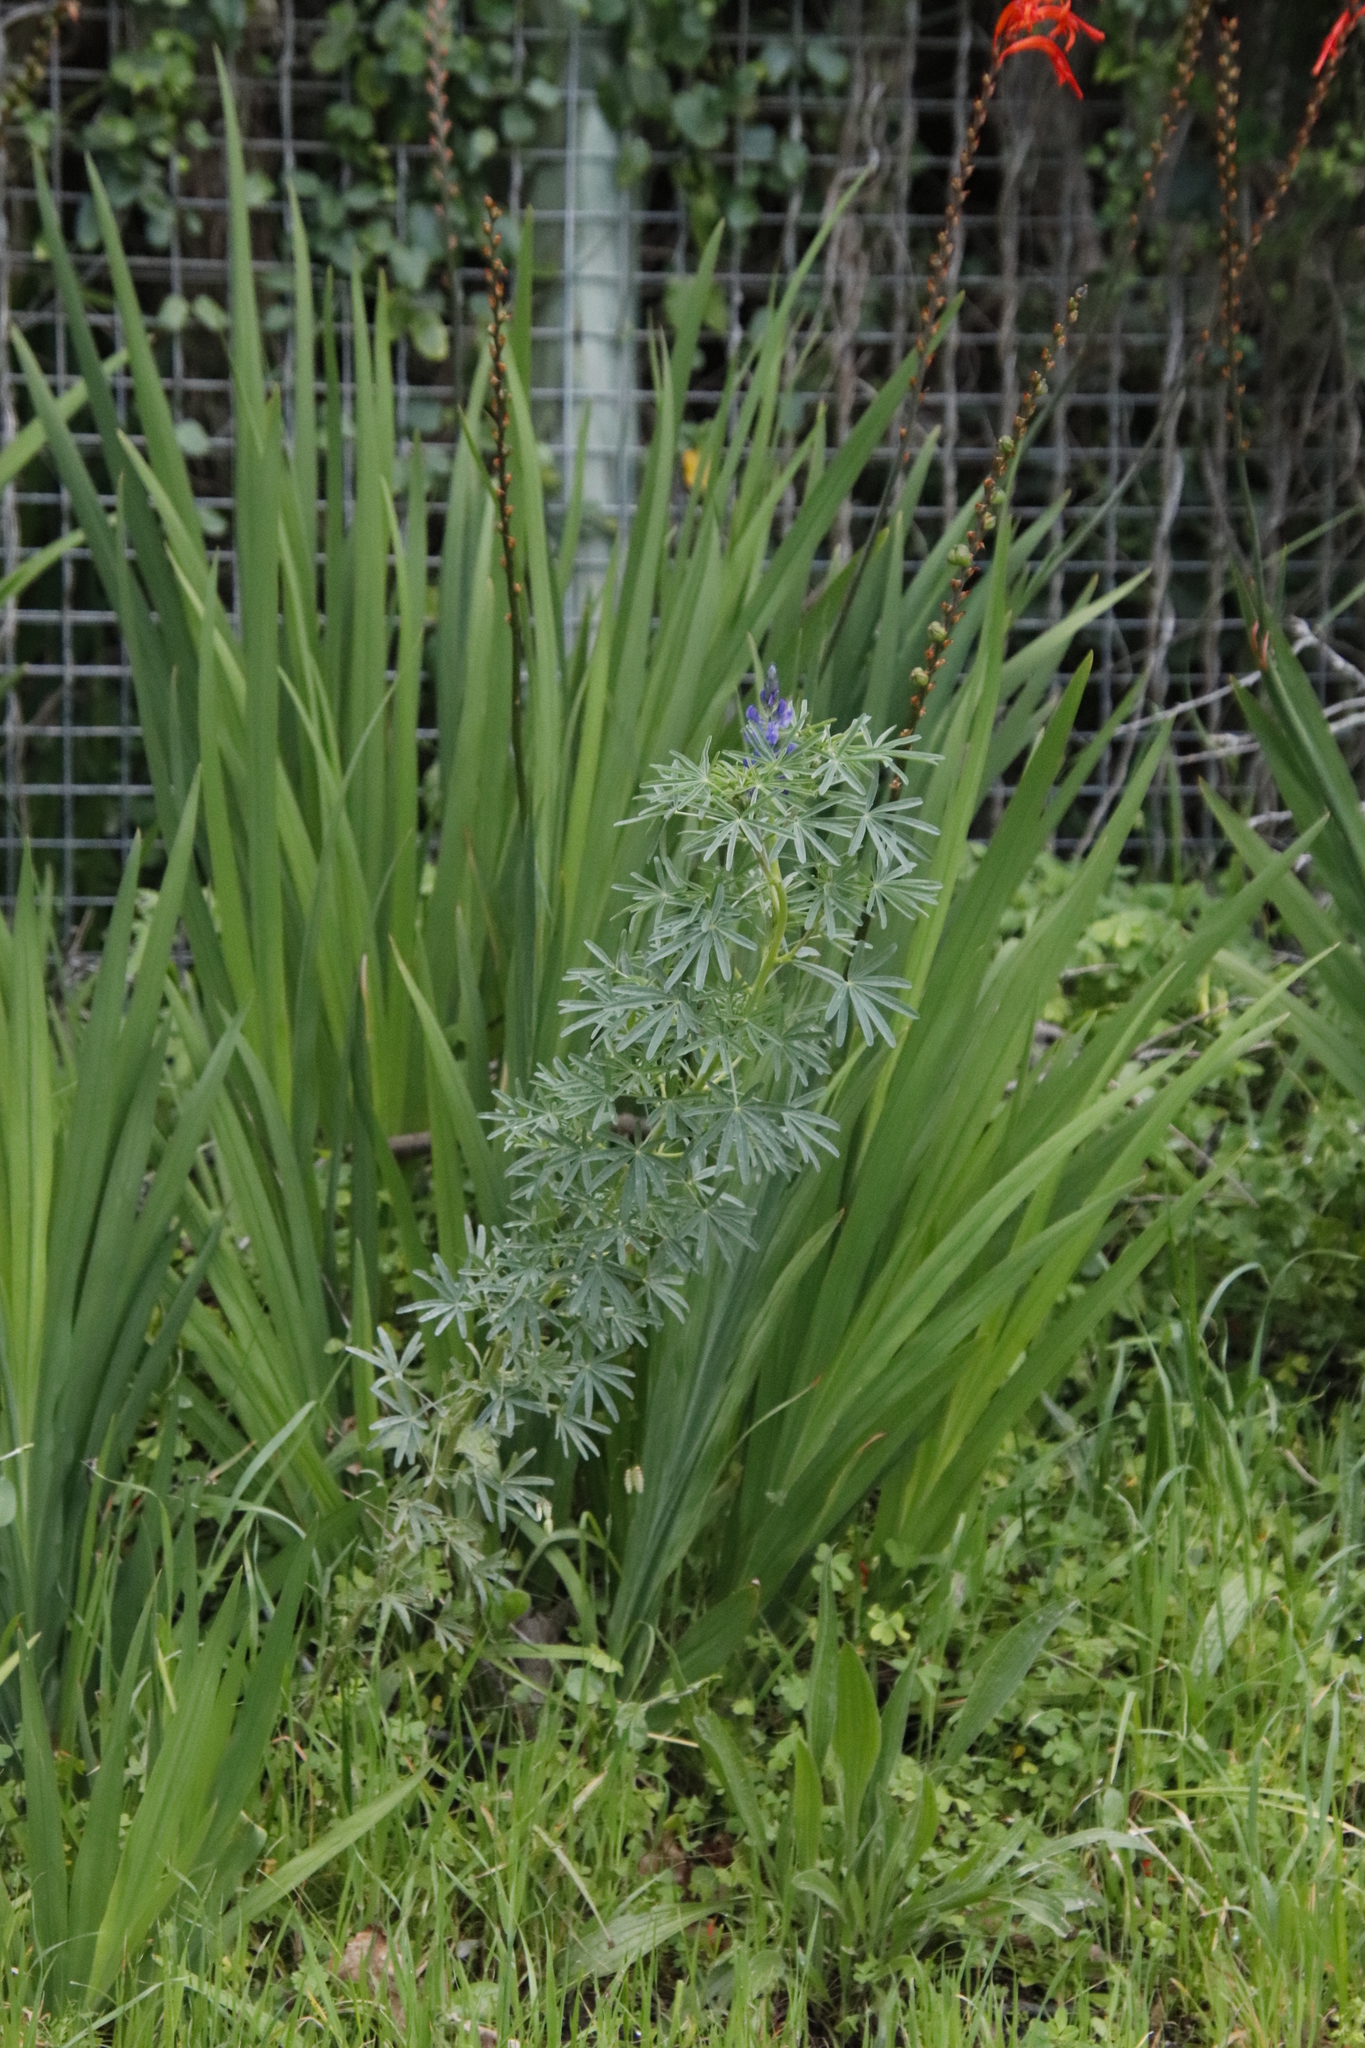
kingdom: Plantae
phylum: Tracheophyta
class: Magnoliopsida
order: Fabales
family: Fabaceae
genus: Lupinus
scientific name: Lupinus angustifolius
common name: Narrow-leaved lupin
